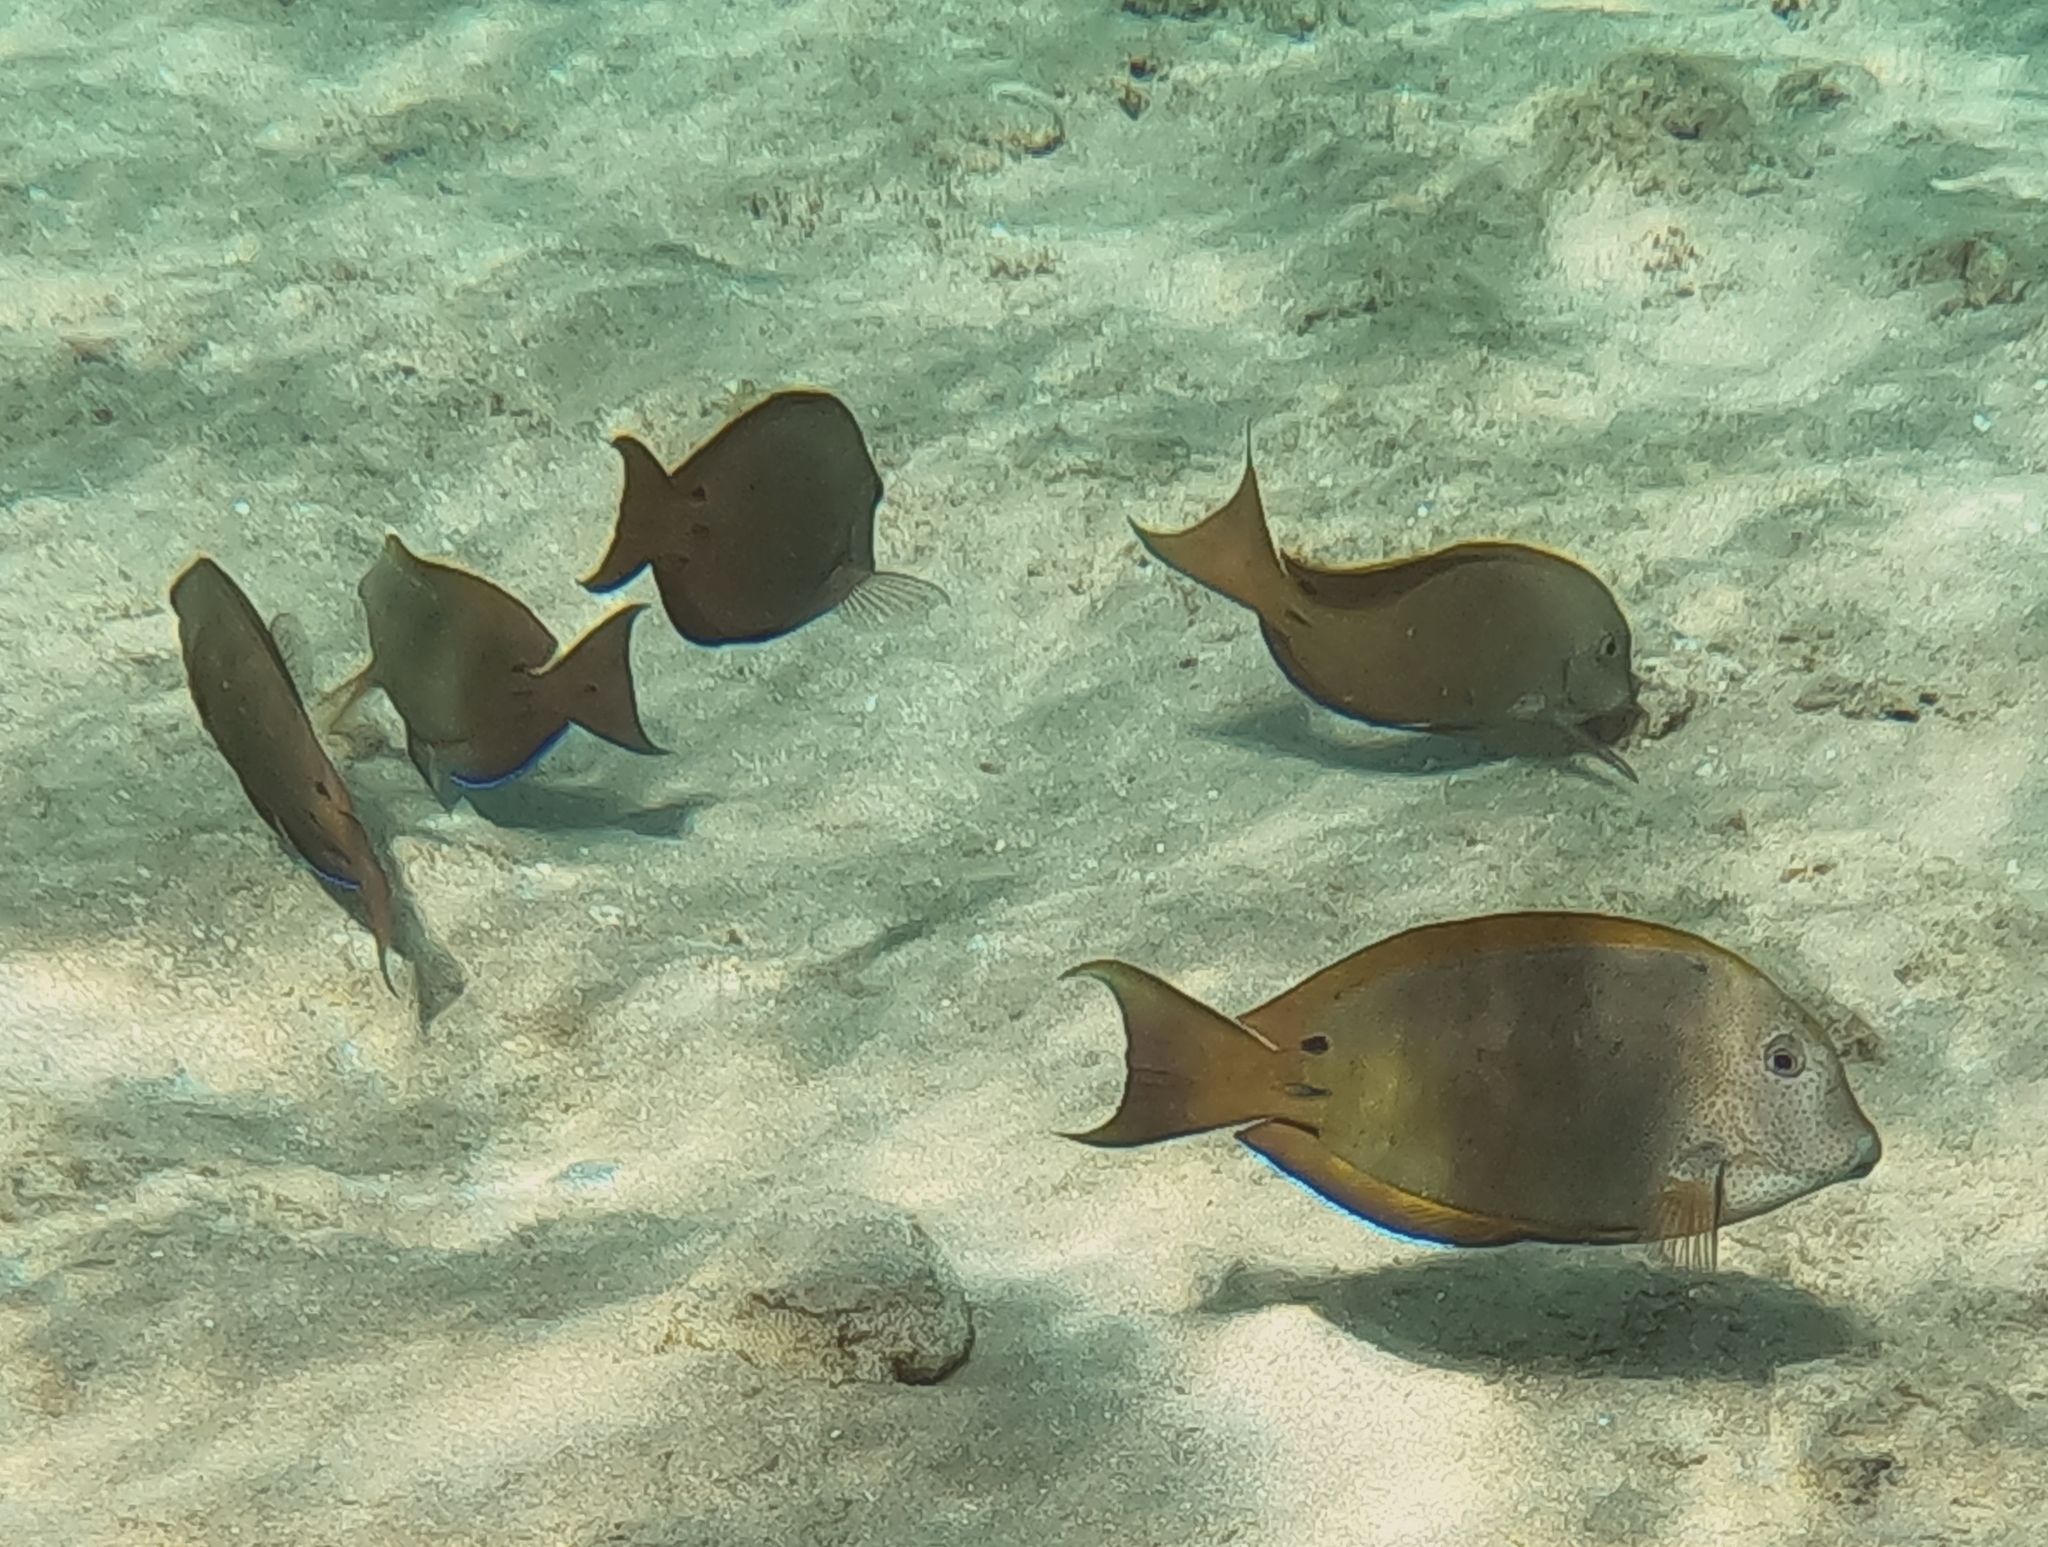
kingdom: Animalia
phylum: Chordata
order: Perciformes
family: Acanthuridae
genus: Acanthurus
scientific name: Acanthurus nigrofuscus
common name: Blackspot surgeonfish
